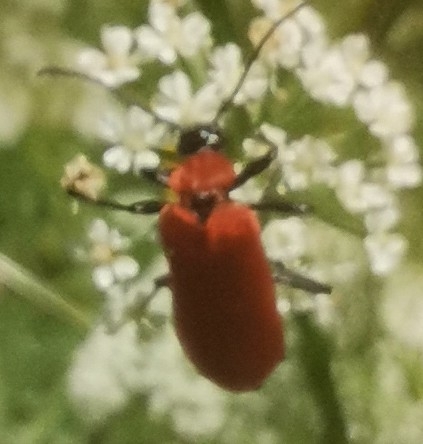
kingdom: Animalia
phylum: Arthropoda
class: Insecta
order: Coleoptera
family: Pyrochroidae
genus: Pyrochroa
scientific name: Pyrochroa coccinea
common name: Black-headed cardinal beetle
